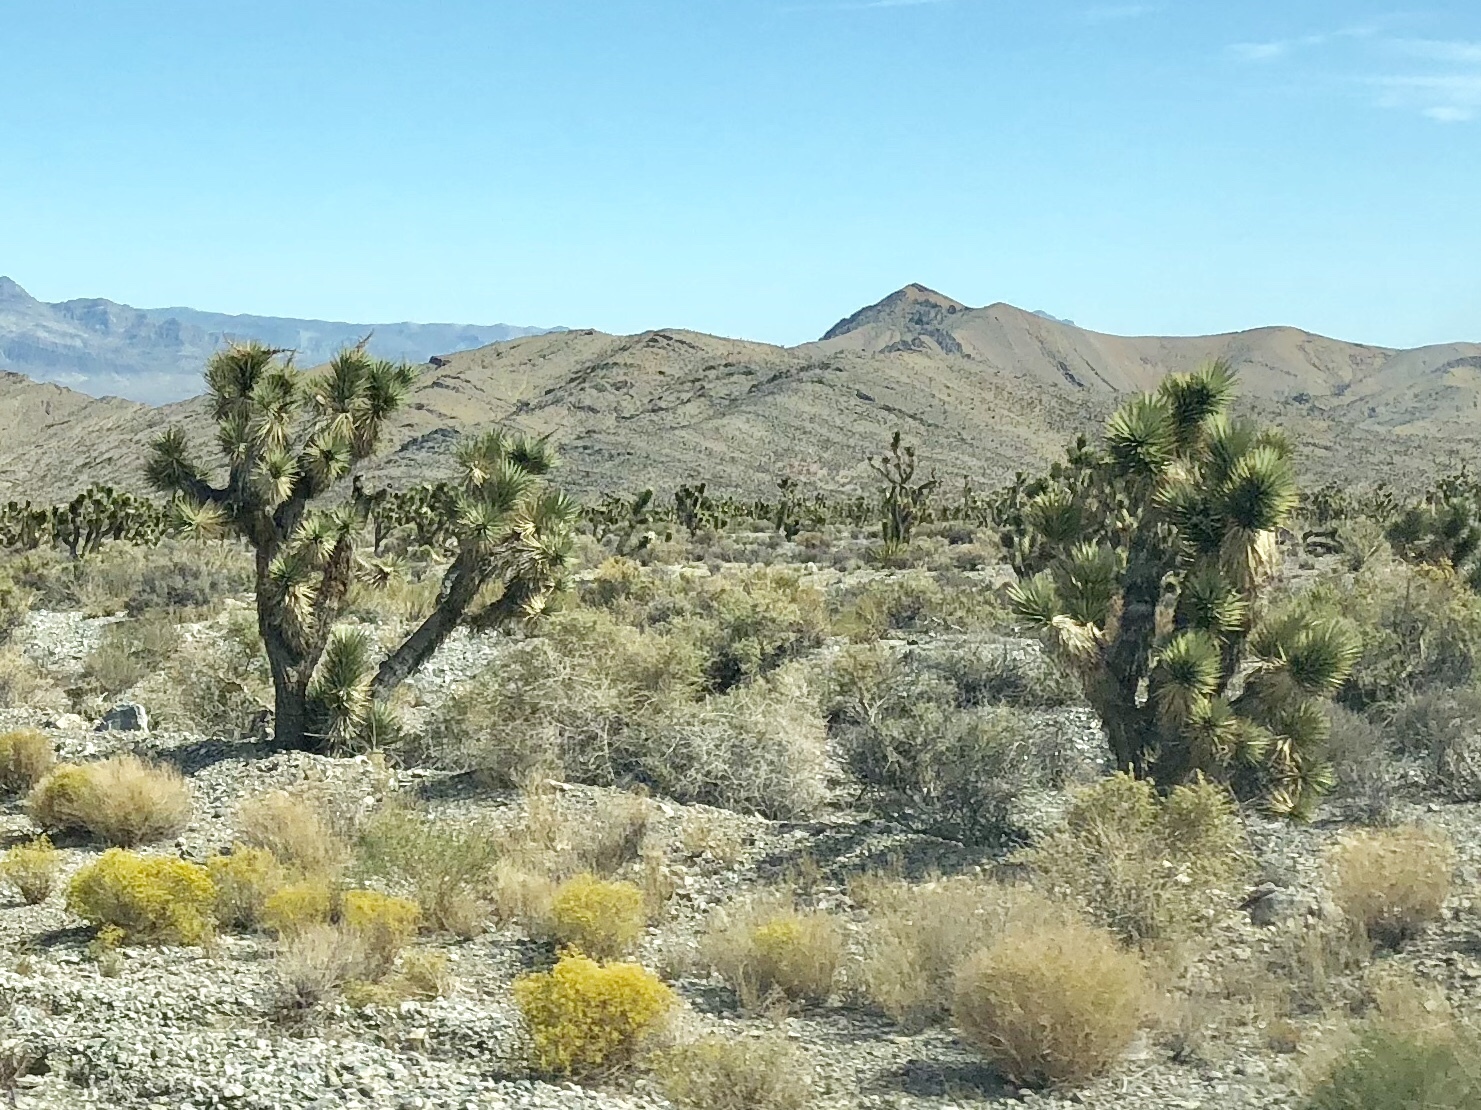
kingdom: Plantae
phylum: Tracheophyta
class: Liliopsida
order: Asparagales
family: Asparagaceae
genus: Yucca
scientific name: Yucca brevifolia
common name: Joshua tree
